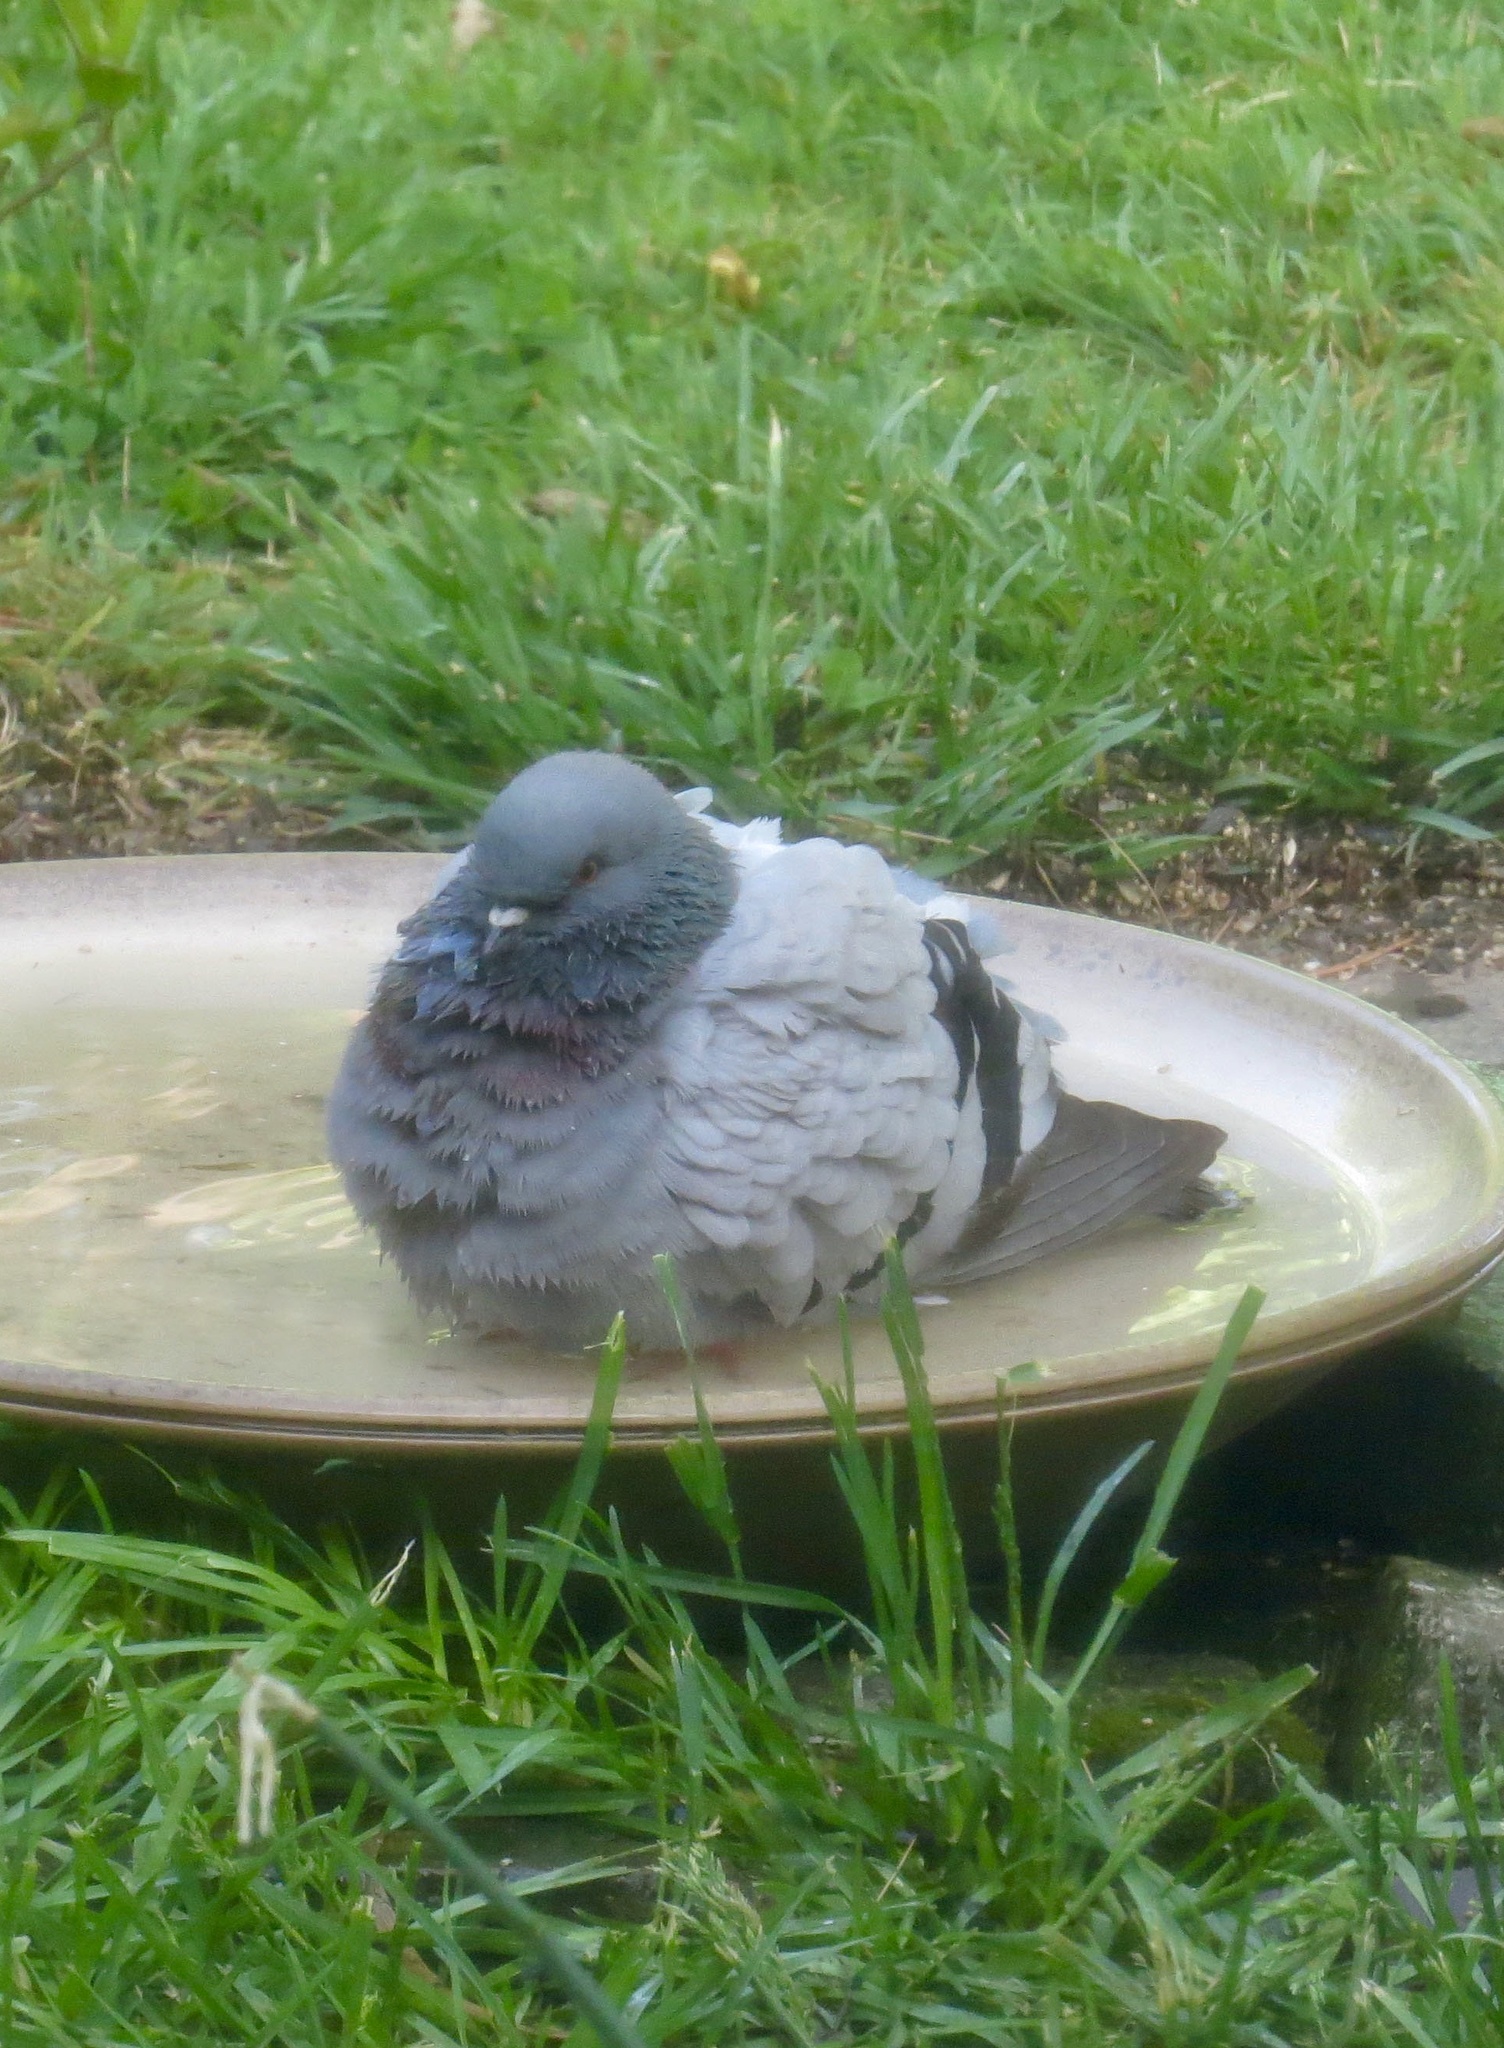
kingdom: Animalia
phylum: Chordata
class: Aves
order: Columbiformes
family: Columbidae
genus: Columba
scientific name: Columba livia
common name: Rock pigeon
